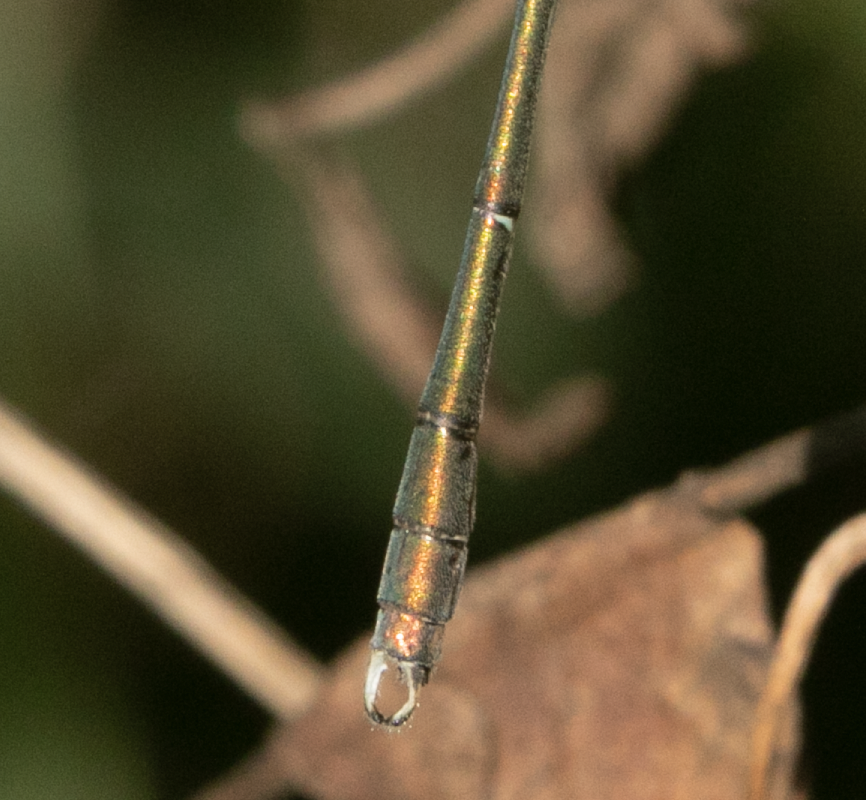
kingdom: Animalia
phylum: Arthropoda
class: Insecta
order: Odonata
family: Lestidae
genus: Chalcolestes
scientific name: Chalcolestes viridis
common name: Green emerald damselfly
